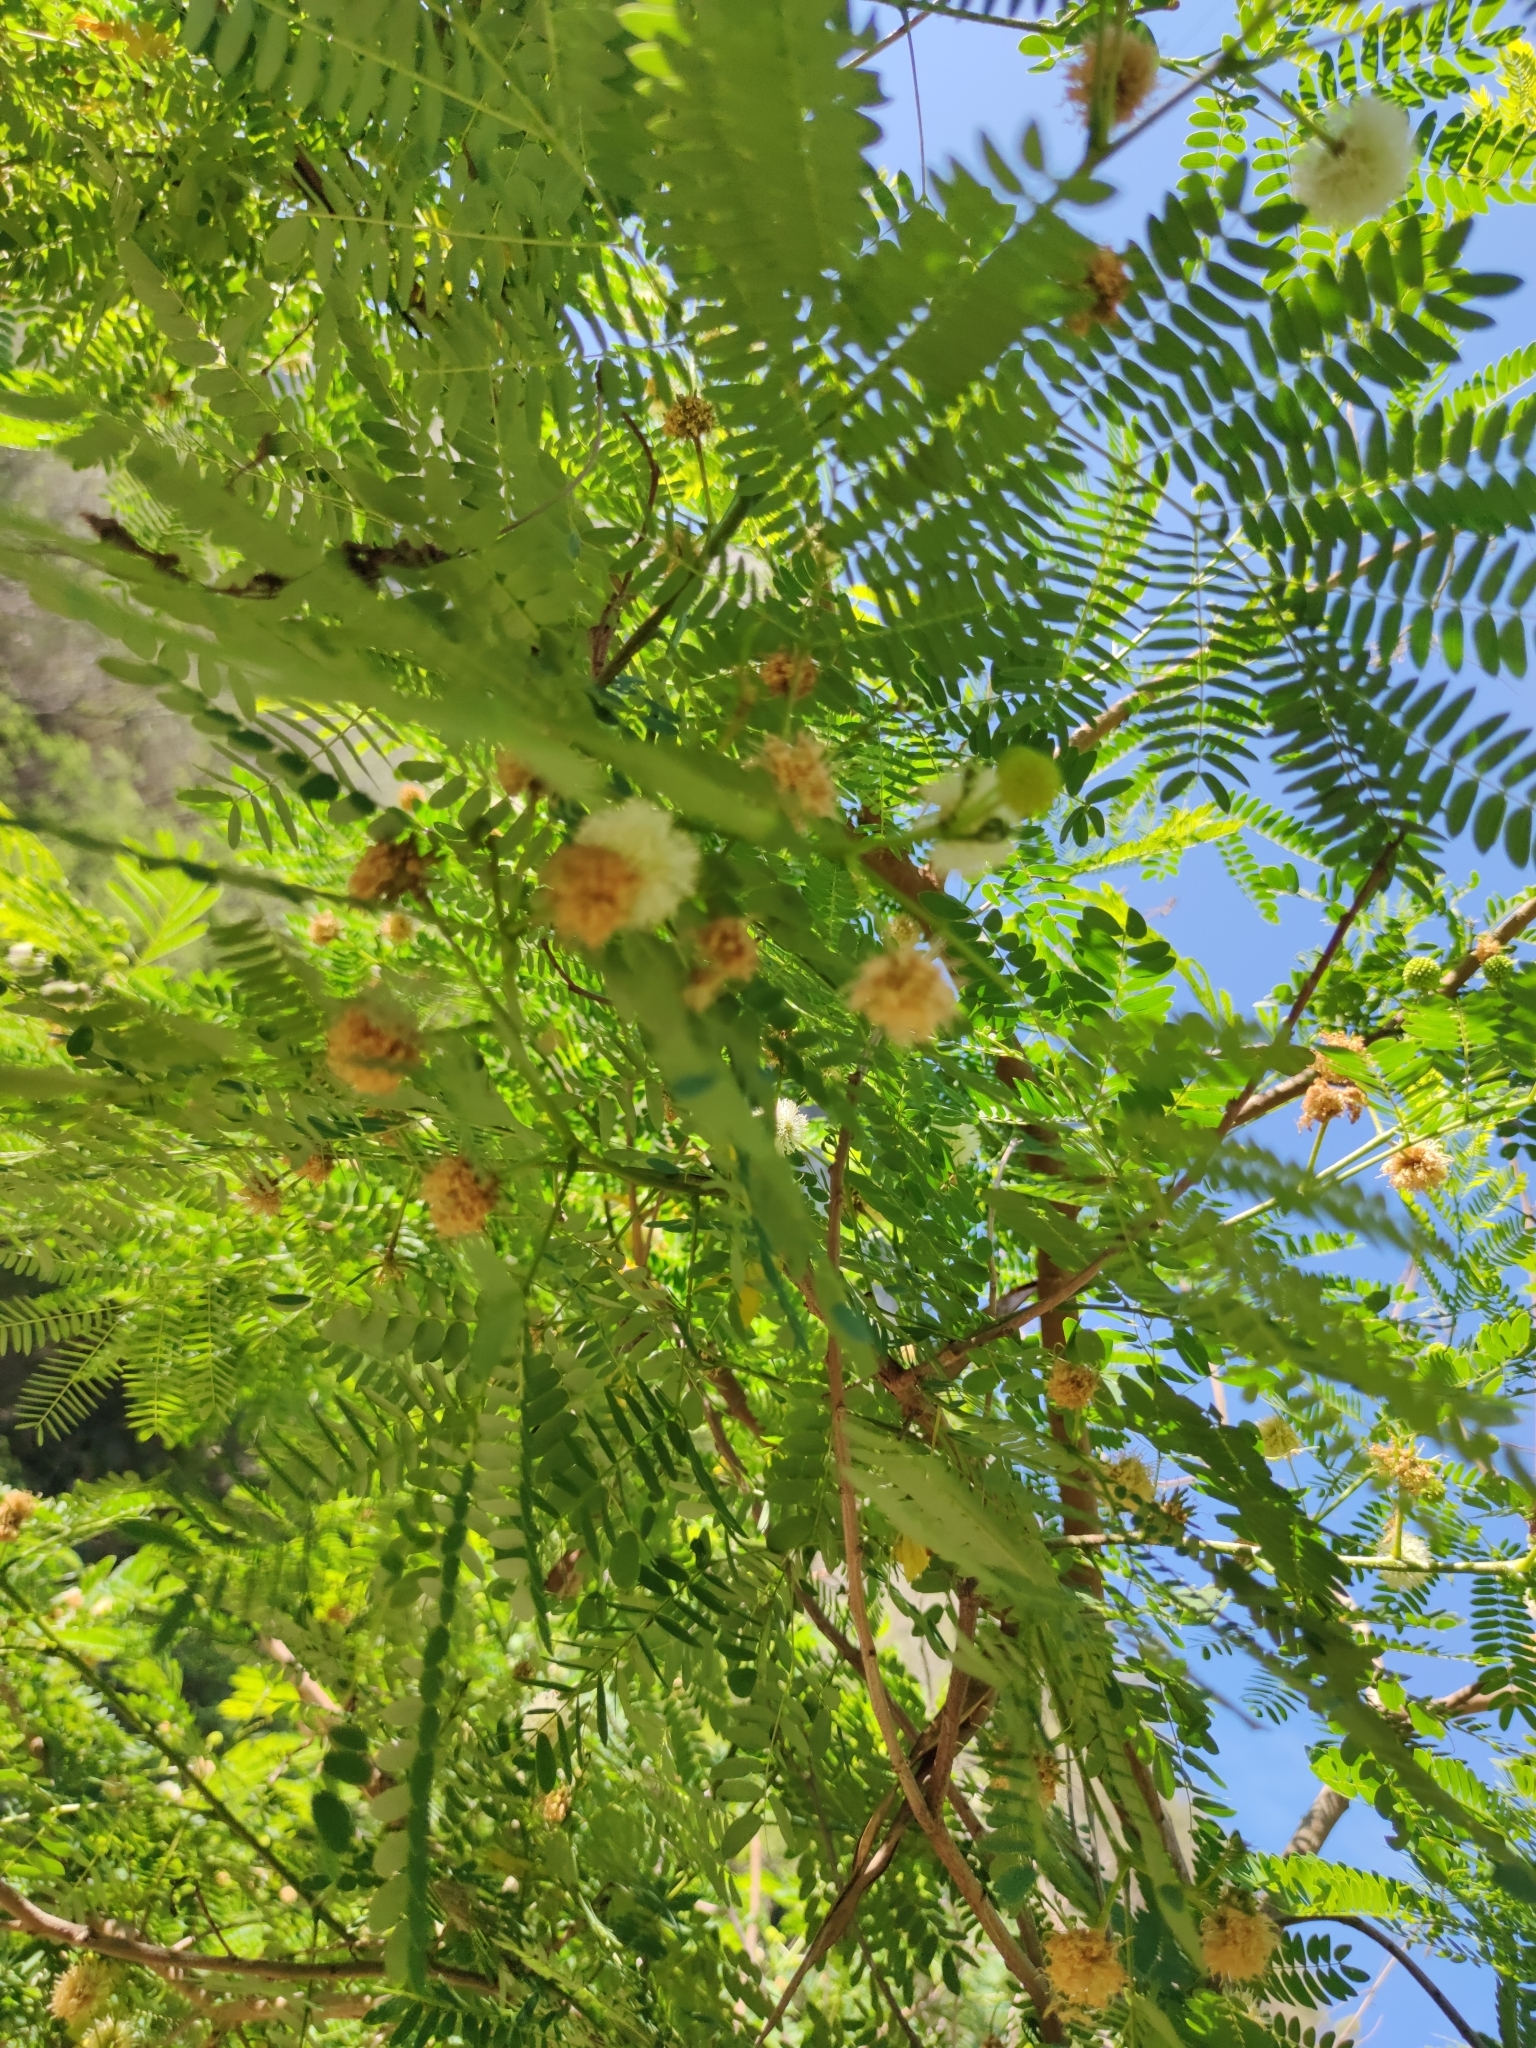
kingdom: Plantae
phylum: Tracheophyta
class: Magnoliopsida
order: Fabales
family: Fabaceae
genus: Leucaena
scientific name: Leucaena leucocephala
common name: White leadtree
